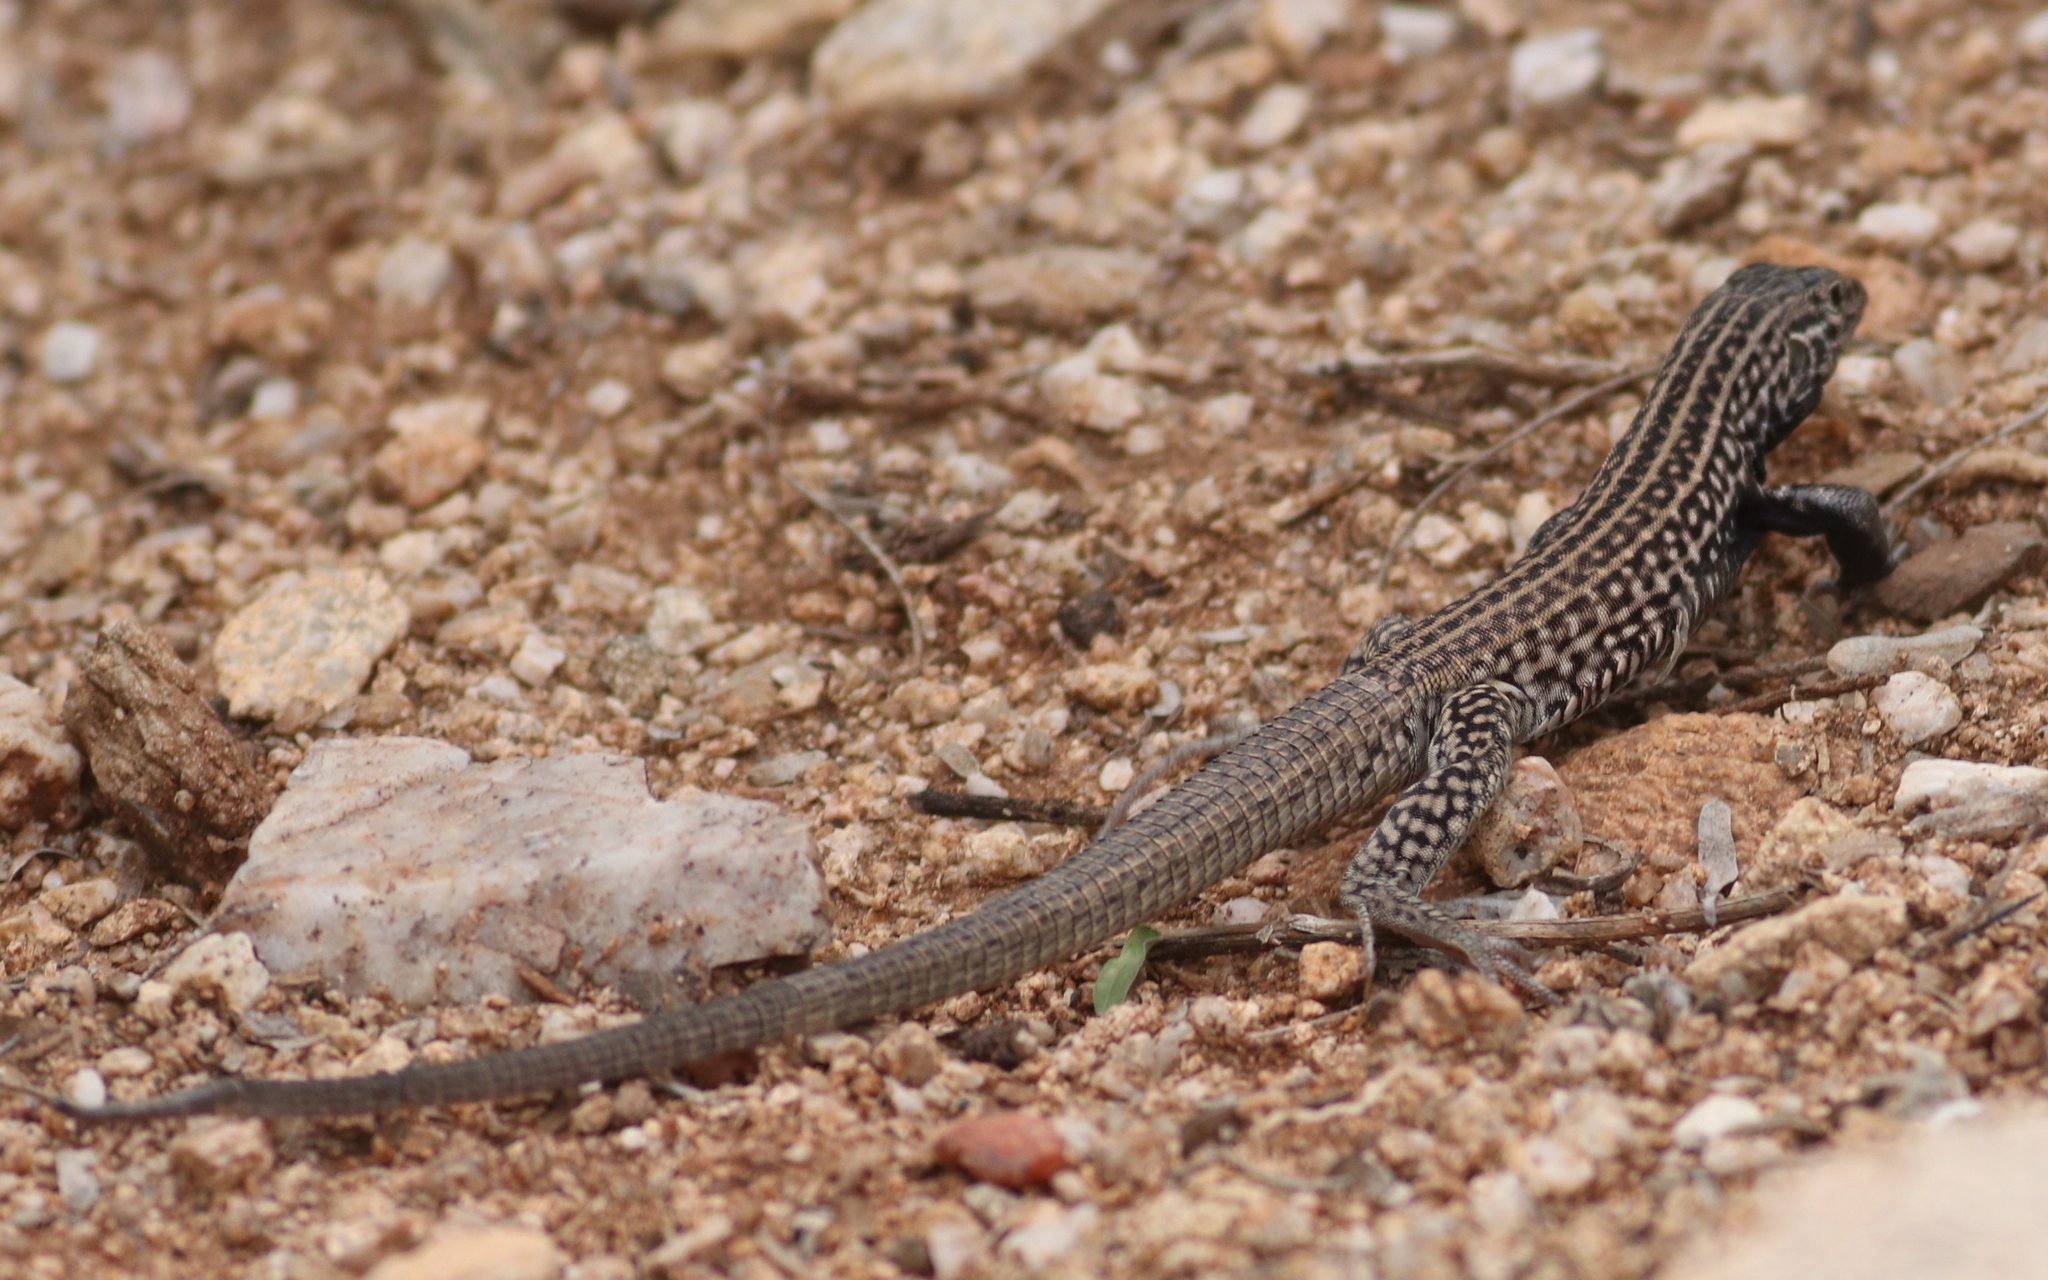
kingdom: Animalia
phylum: Chordata
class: Squamata
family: Teiidae
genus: Aspidoscelis
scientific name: Aspidoscelis tigris
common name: Tiger whiptail
